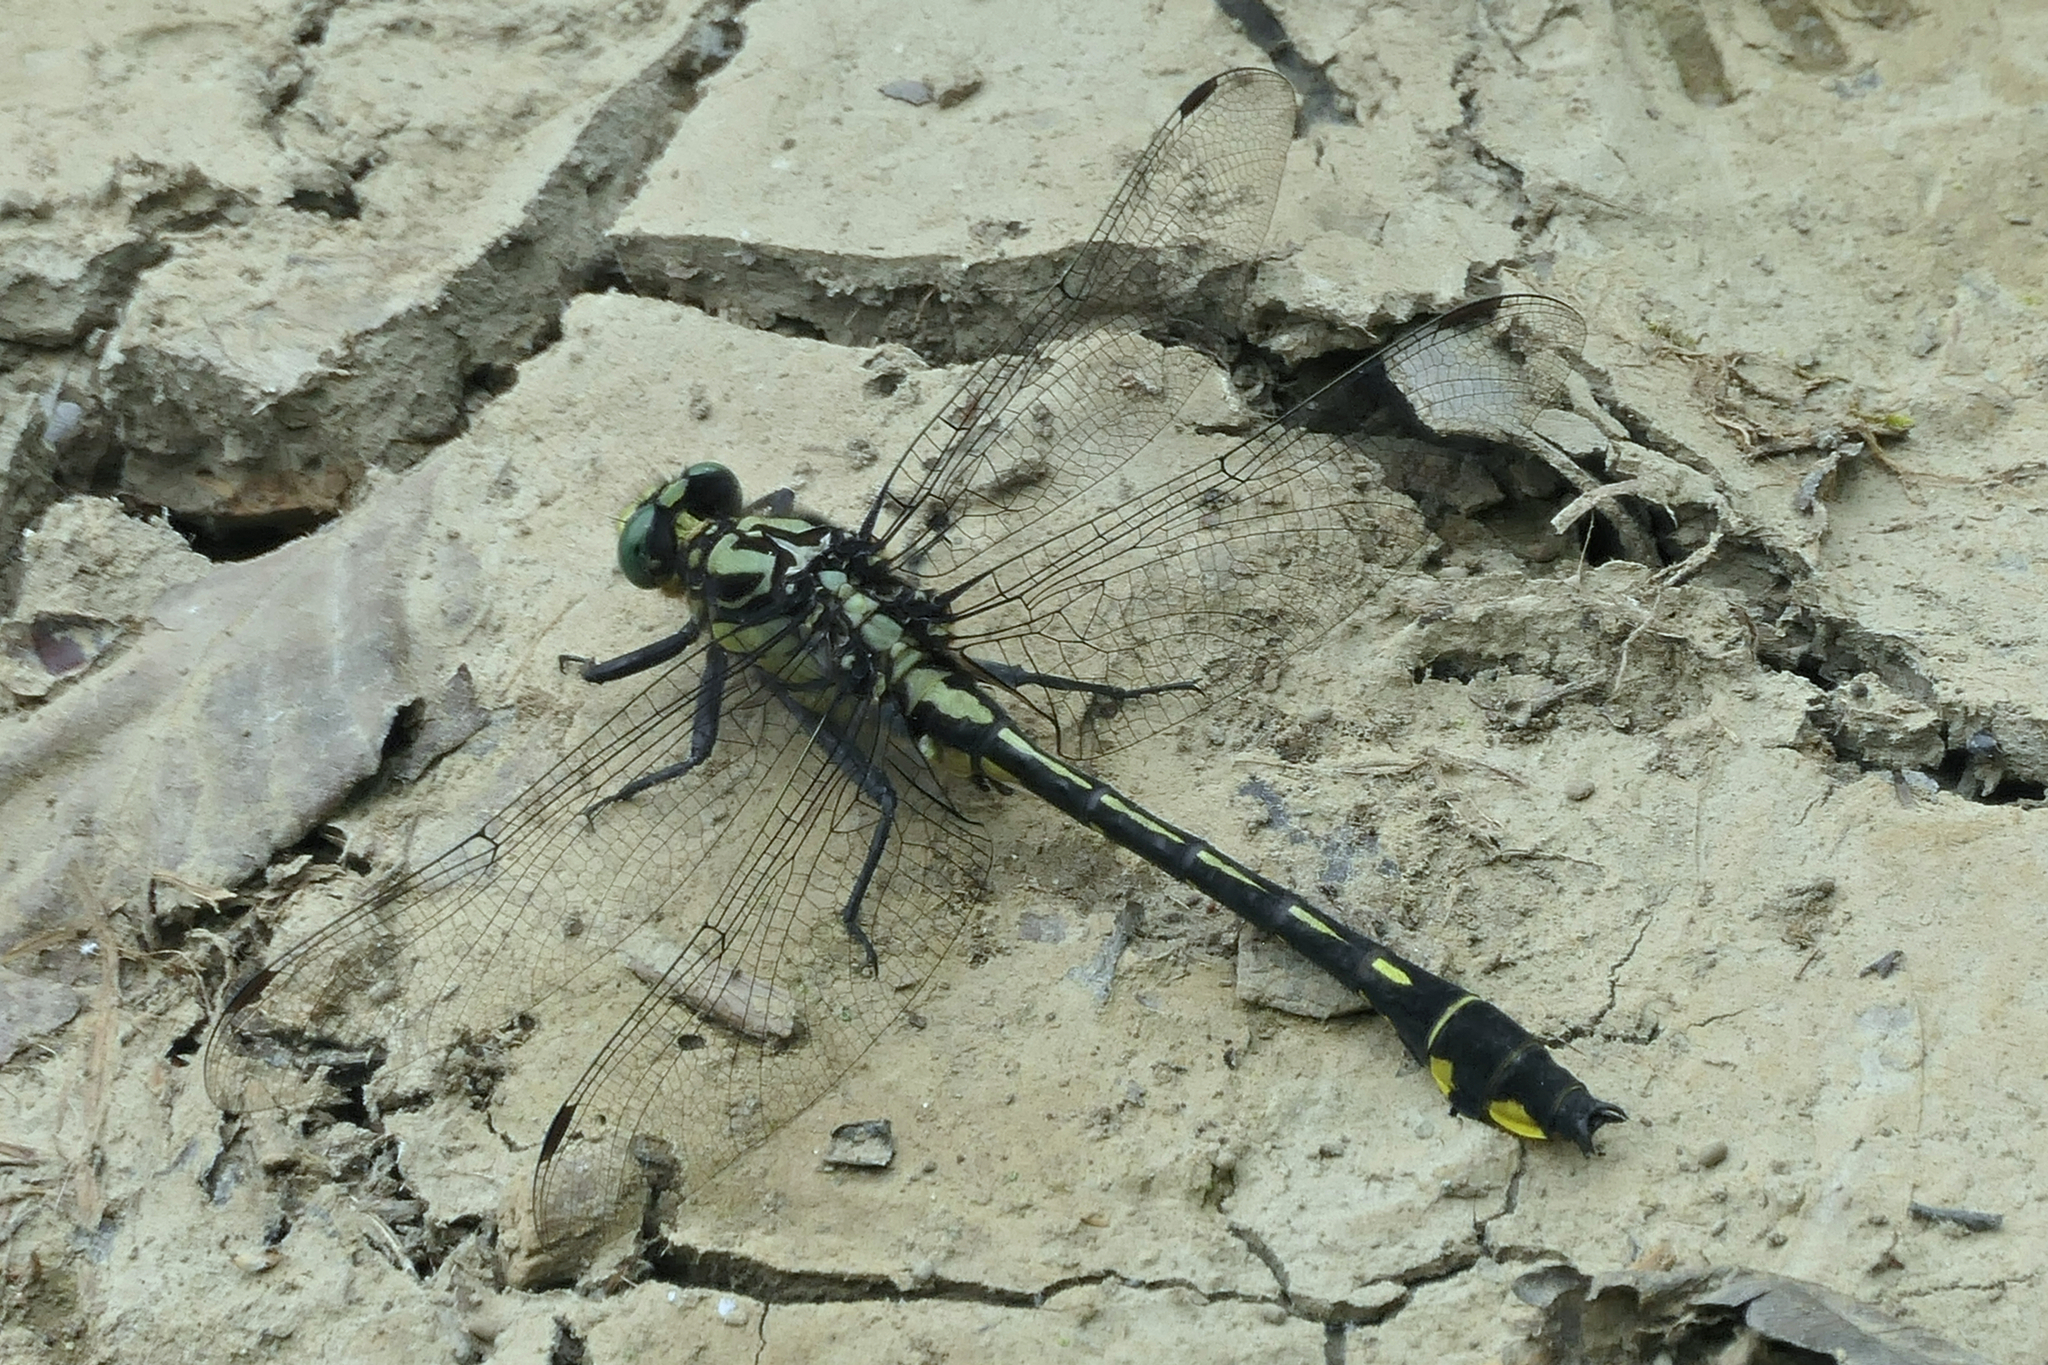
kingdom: Animalia
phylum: Arthropoda
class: Insecta
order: Odonata
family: Gomphidae
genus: Gomphurus
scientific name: Gomphurus lineatifrons
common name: Splendid clubtail
